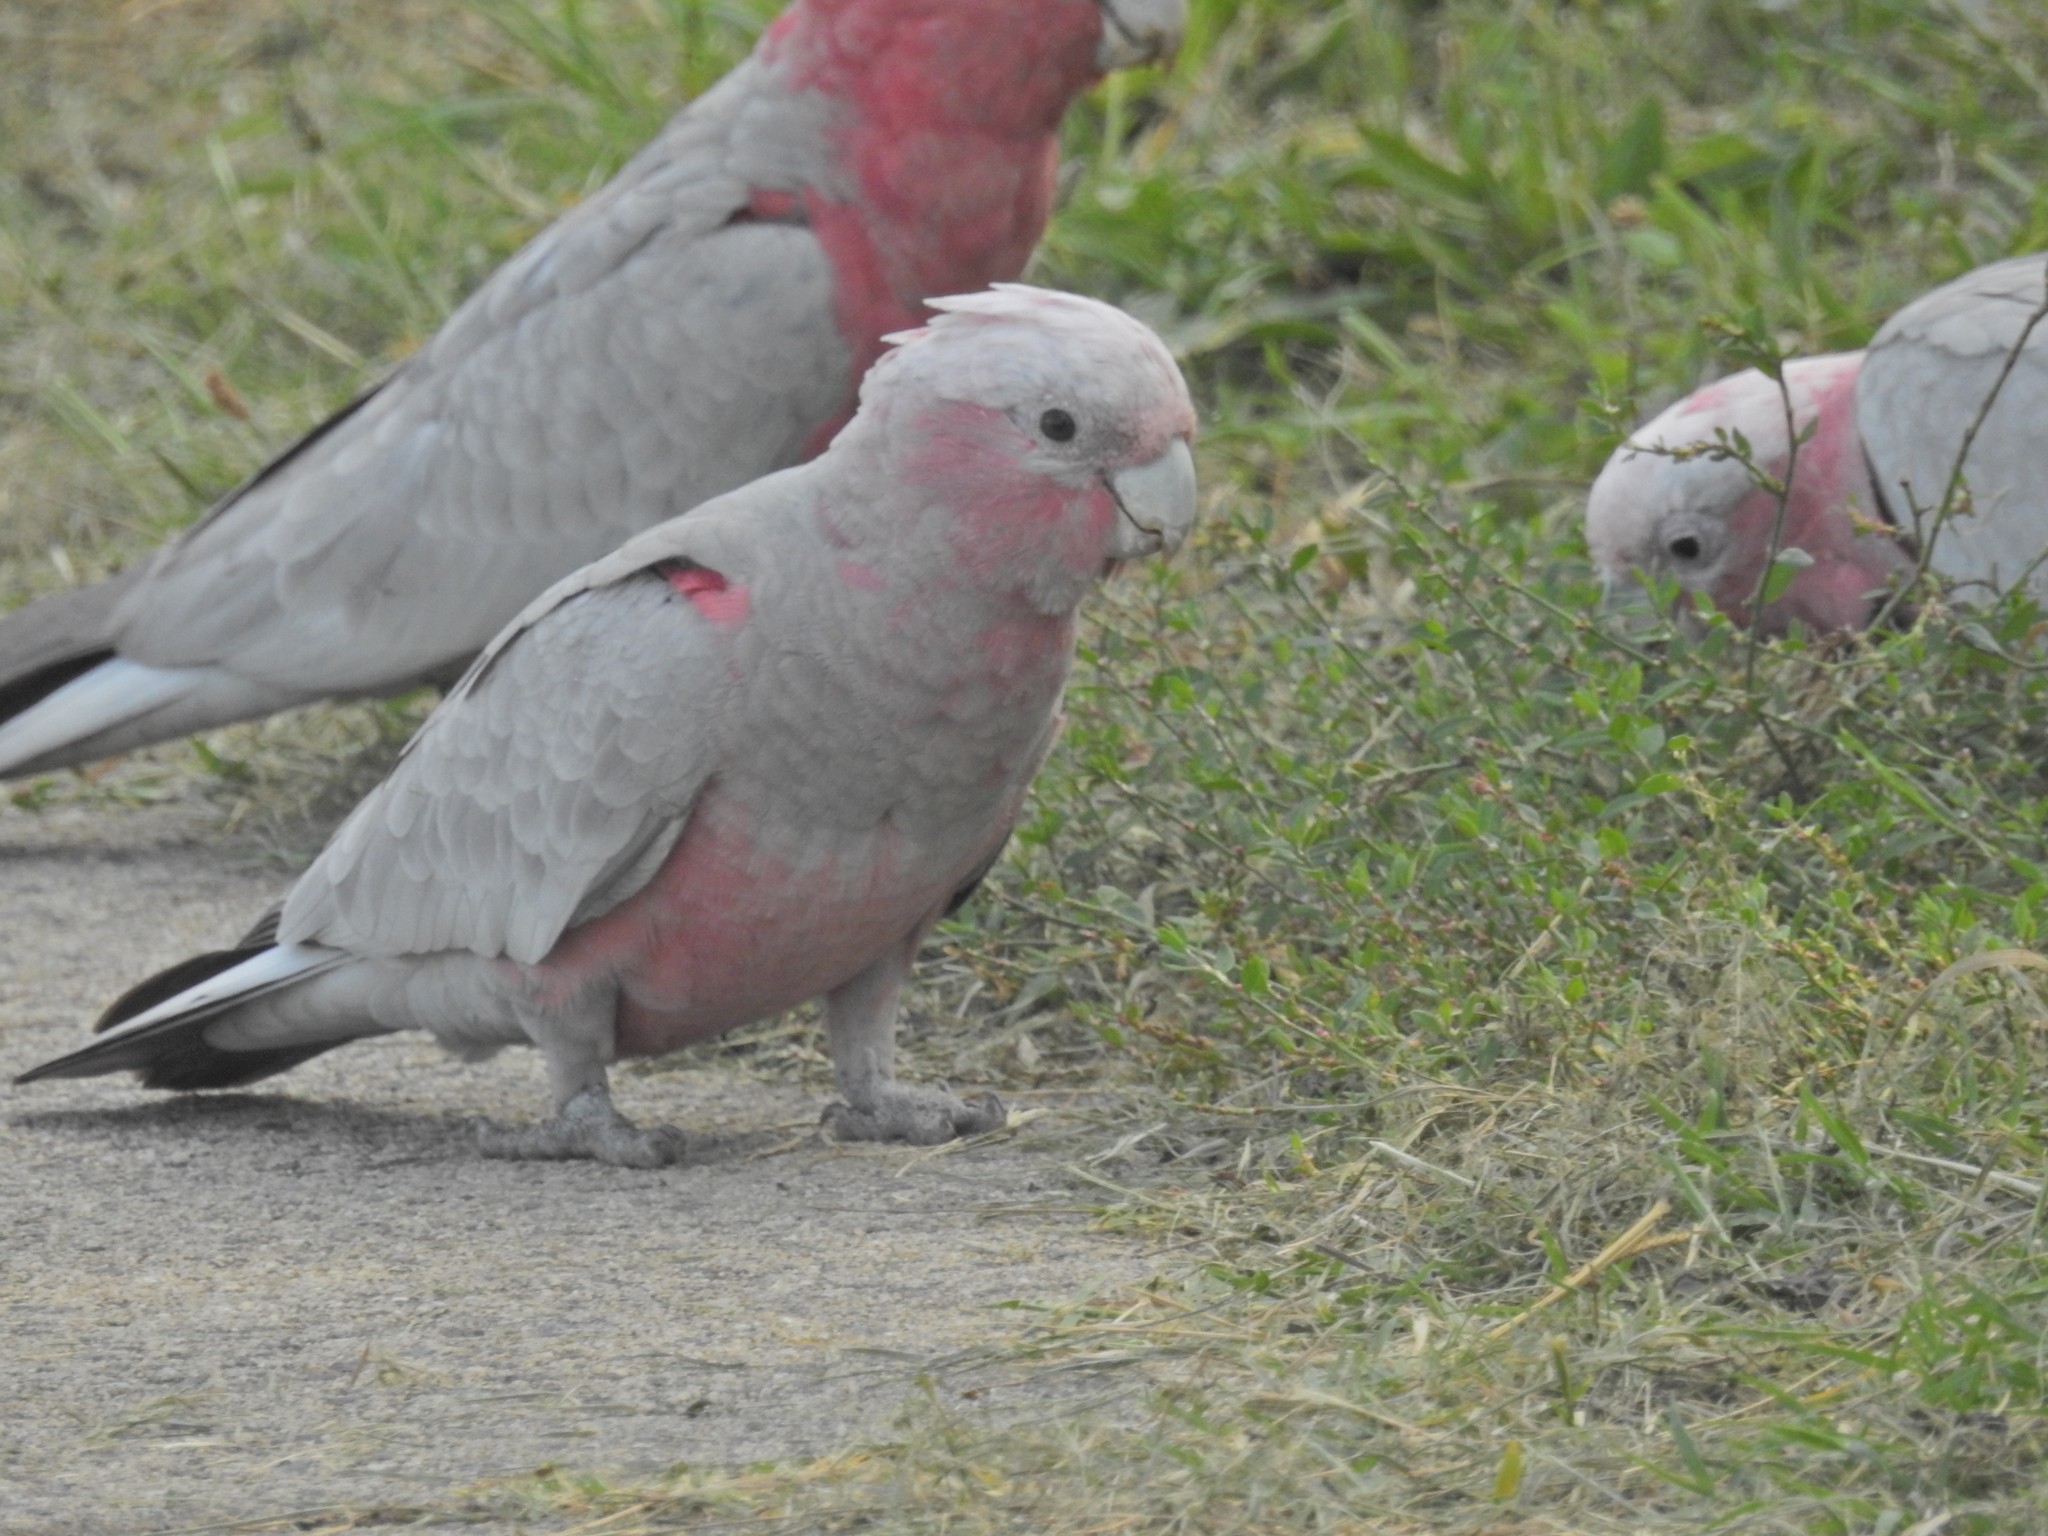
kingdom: Animalia
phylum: Chordata
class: Aves
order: Psittaciformes
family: Psittacidae
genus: Eolophus
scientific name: Eolophus roseicapilla
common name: Galah
